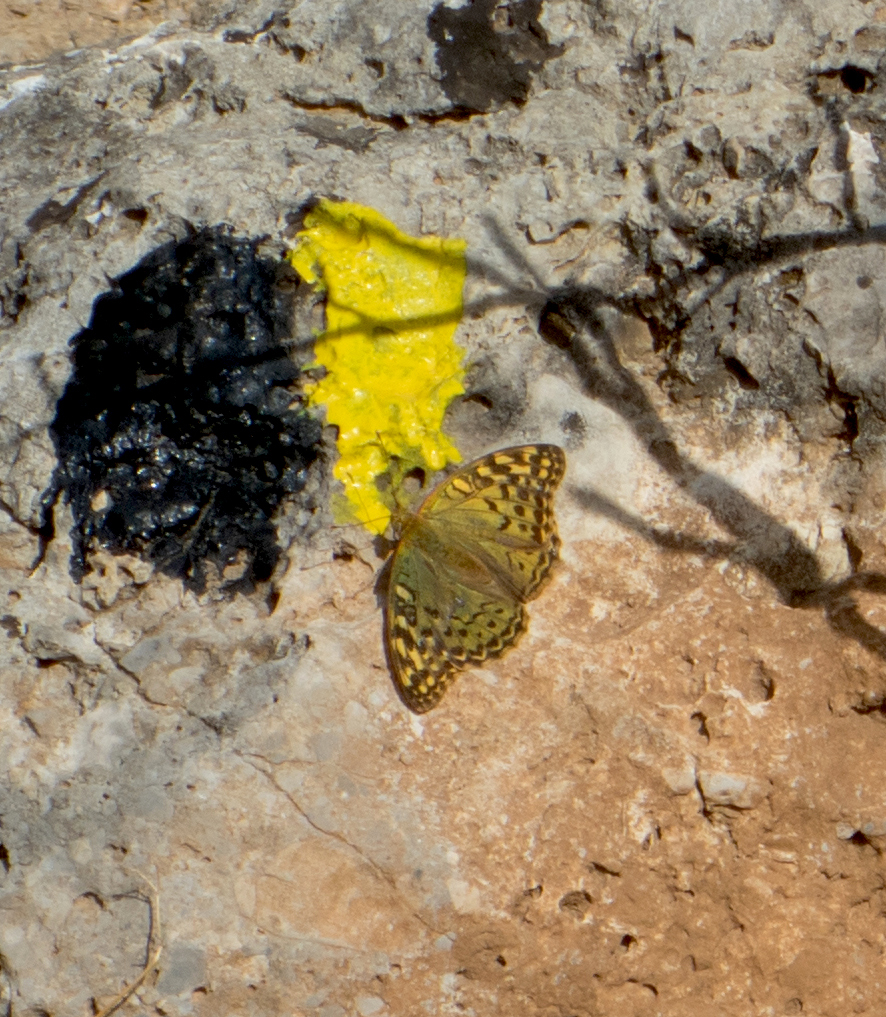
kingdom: Animalia
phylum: Arthropoda
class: Insecta
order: Lepidoptera
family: Nymphalidae
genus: Damora
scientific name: Damora pandora
